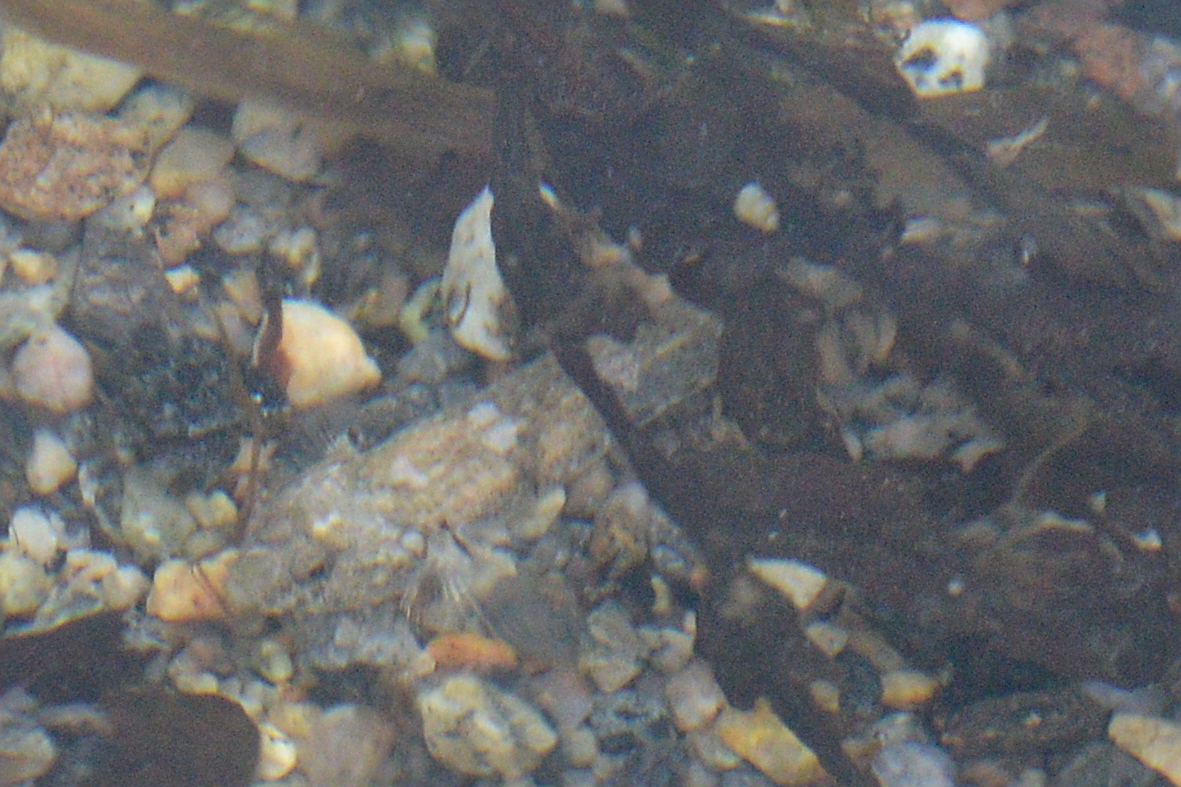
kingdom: Animalia
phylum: Chordata
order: Perciformes
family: Gobiidae
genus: Pomatoschistus
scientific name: Pomatoschistus microps
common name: Common goby
